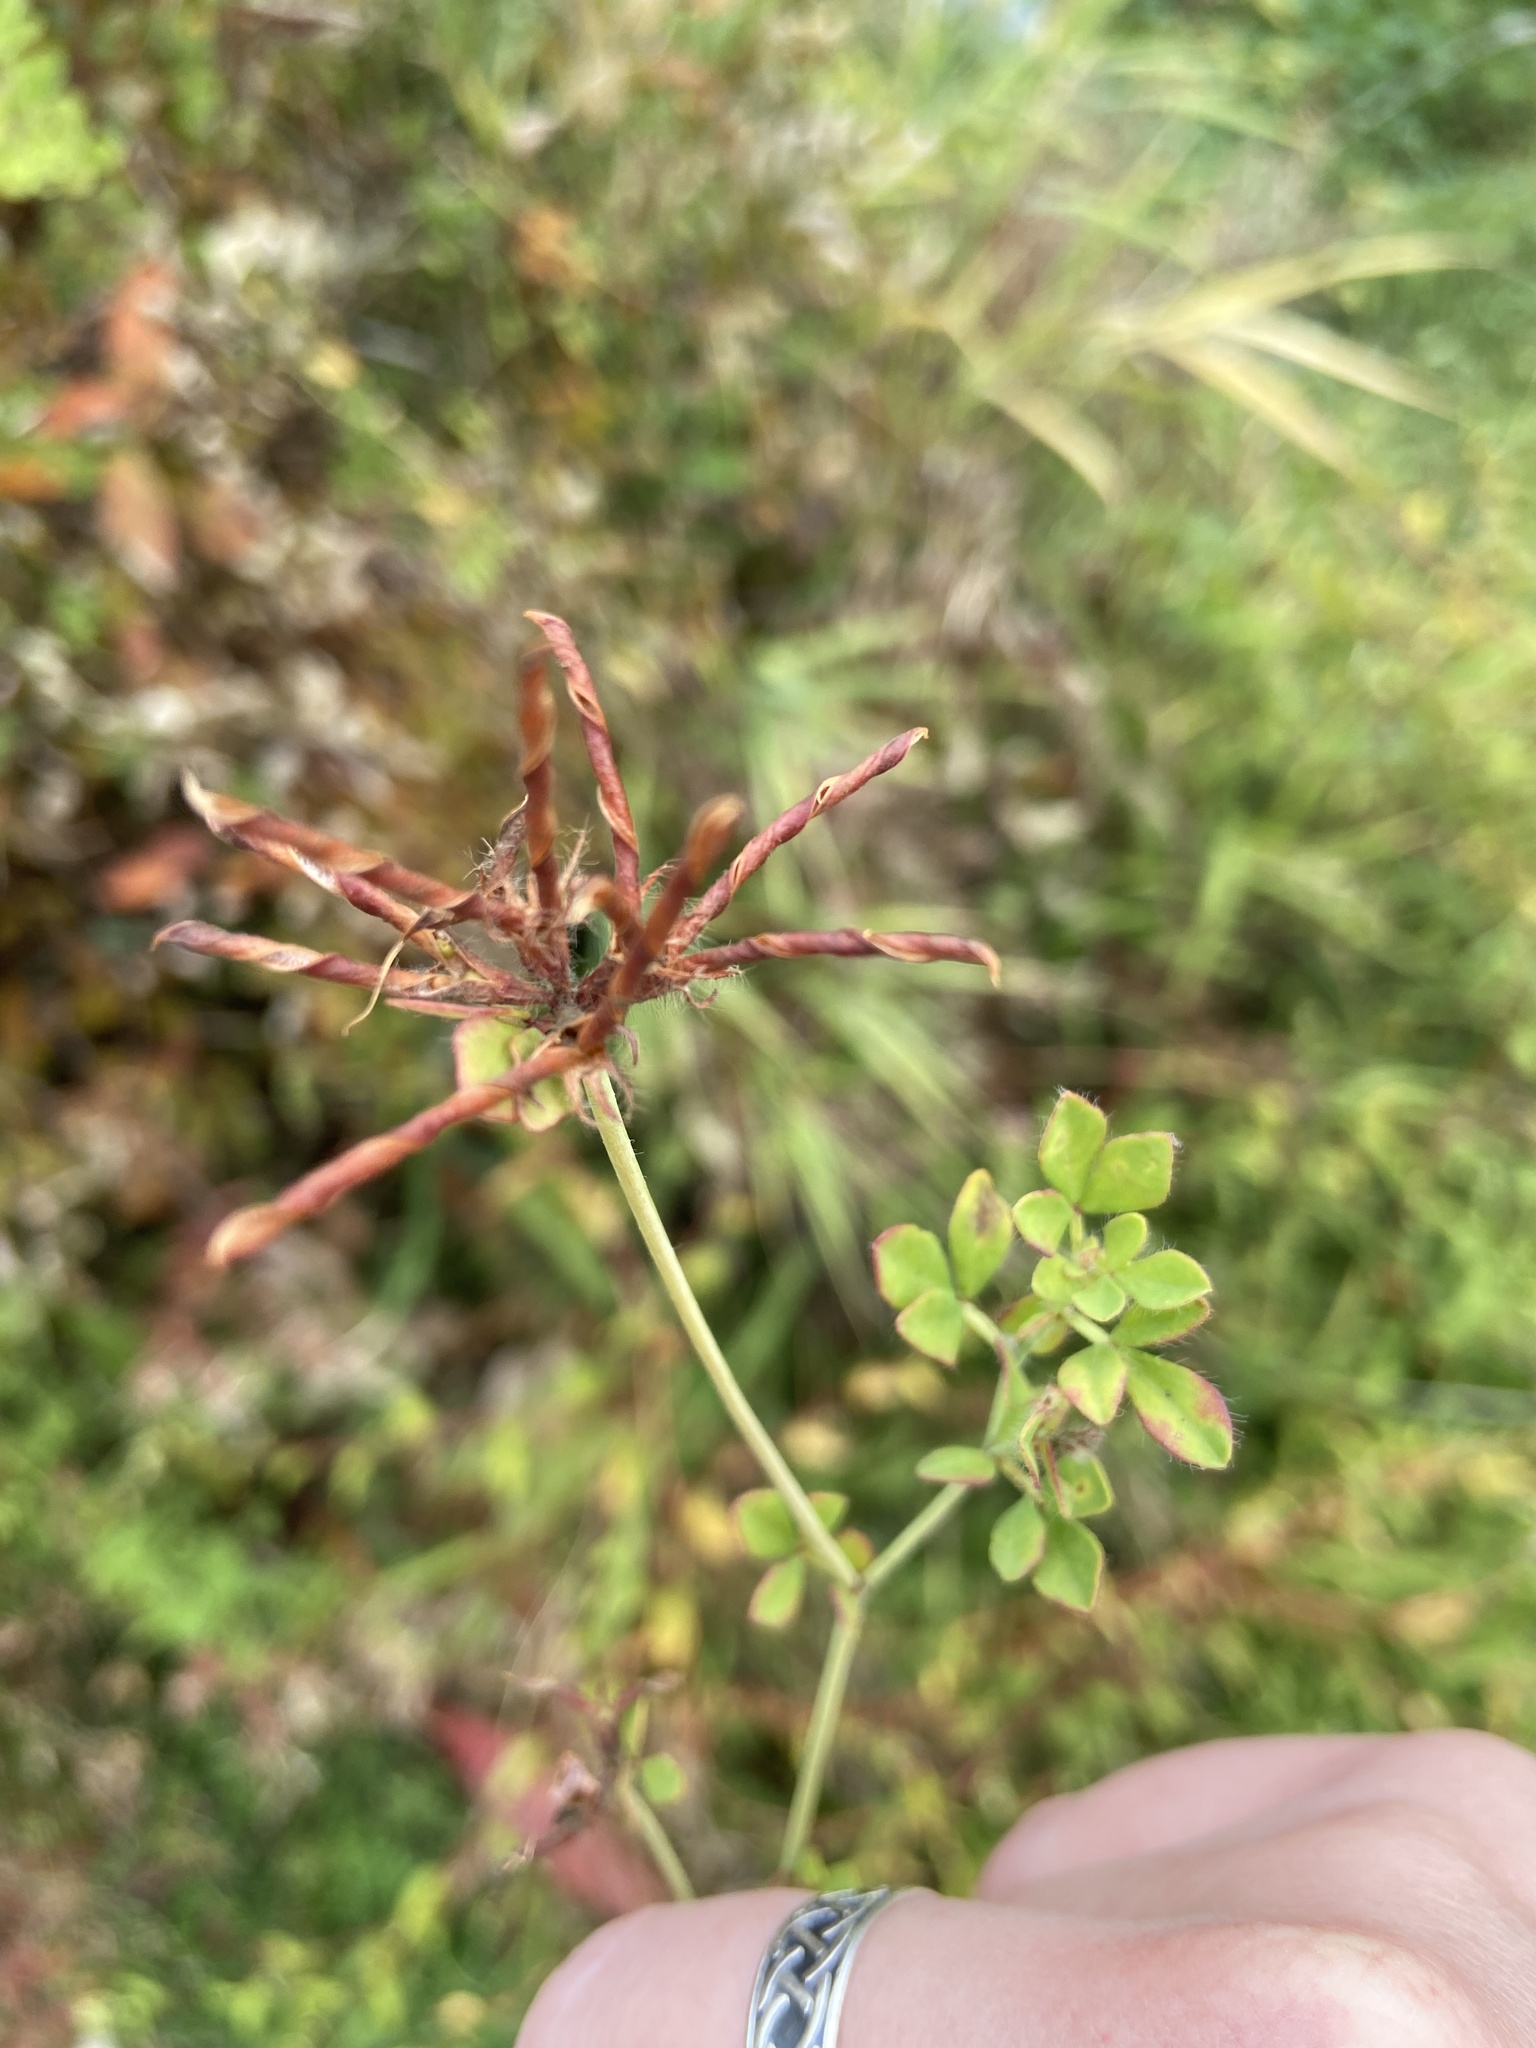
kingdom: Plantae
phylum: Tracheophyta
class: Magnoliopsida
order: Fabales
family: Fabaceae
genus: Lotus
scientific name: Lotus
